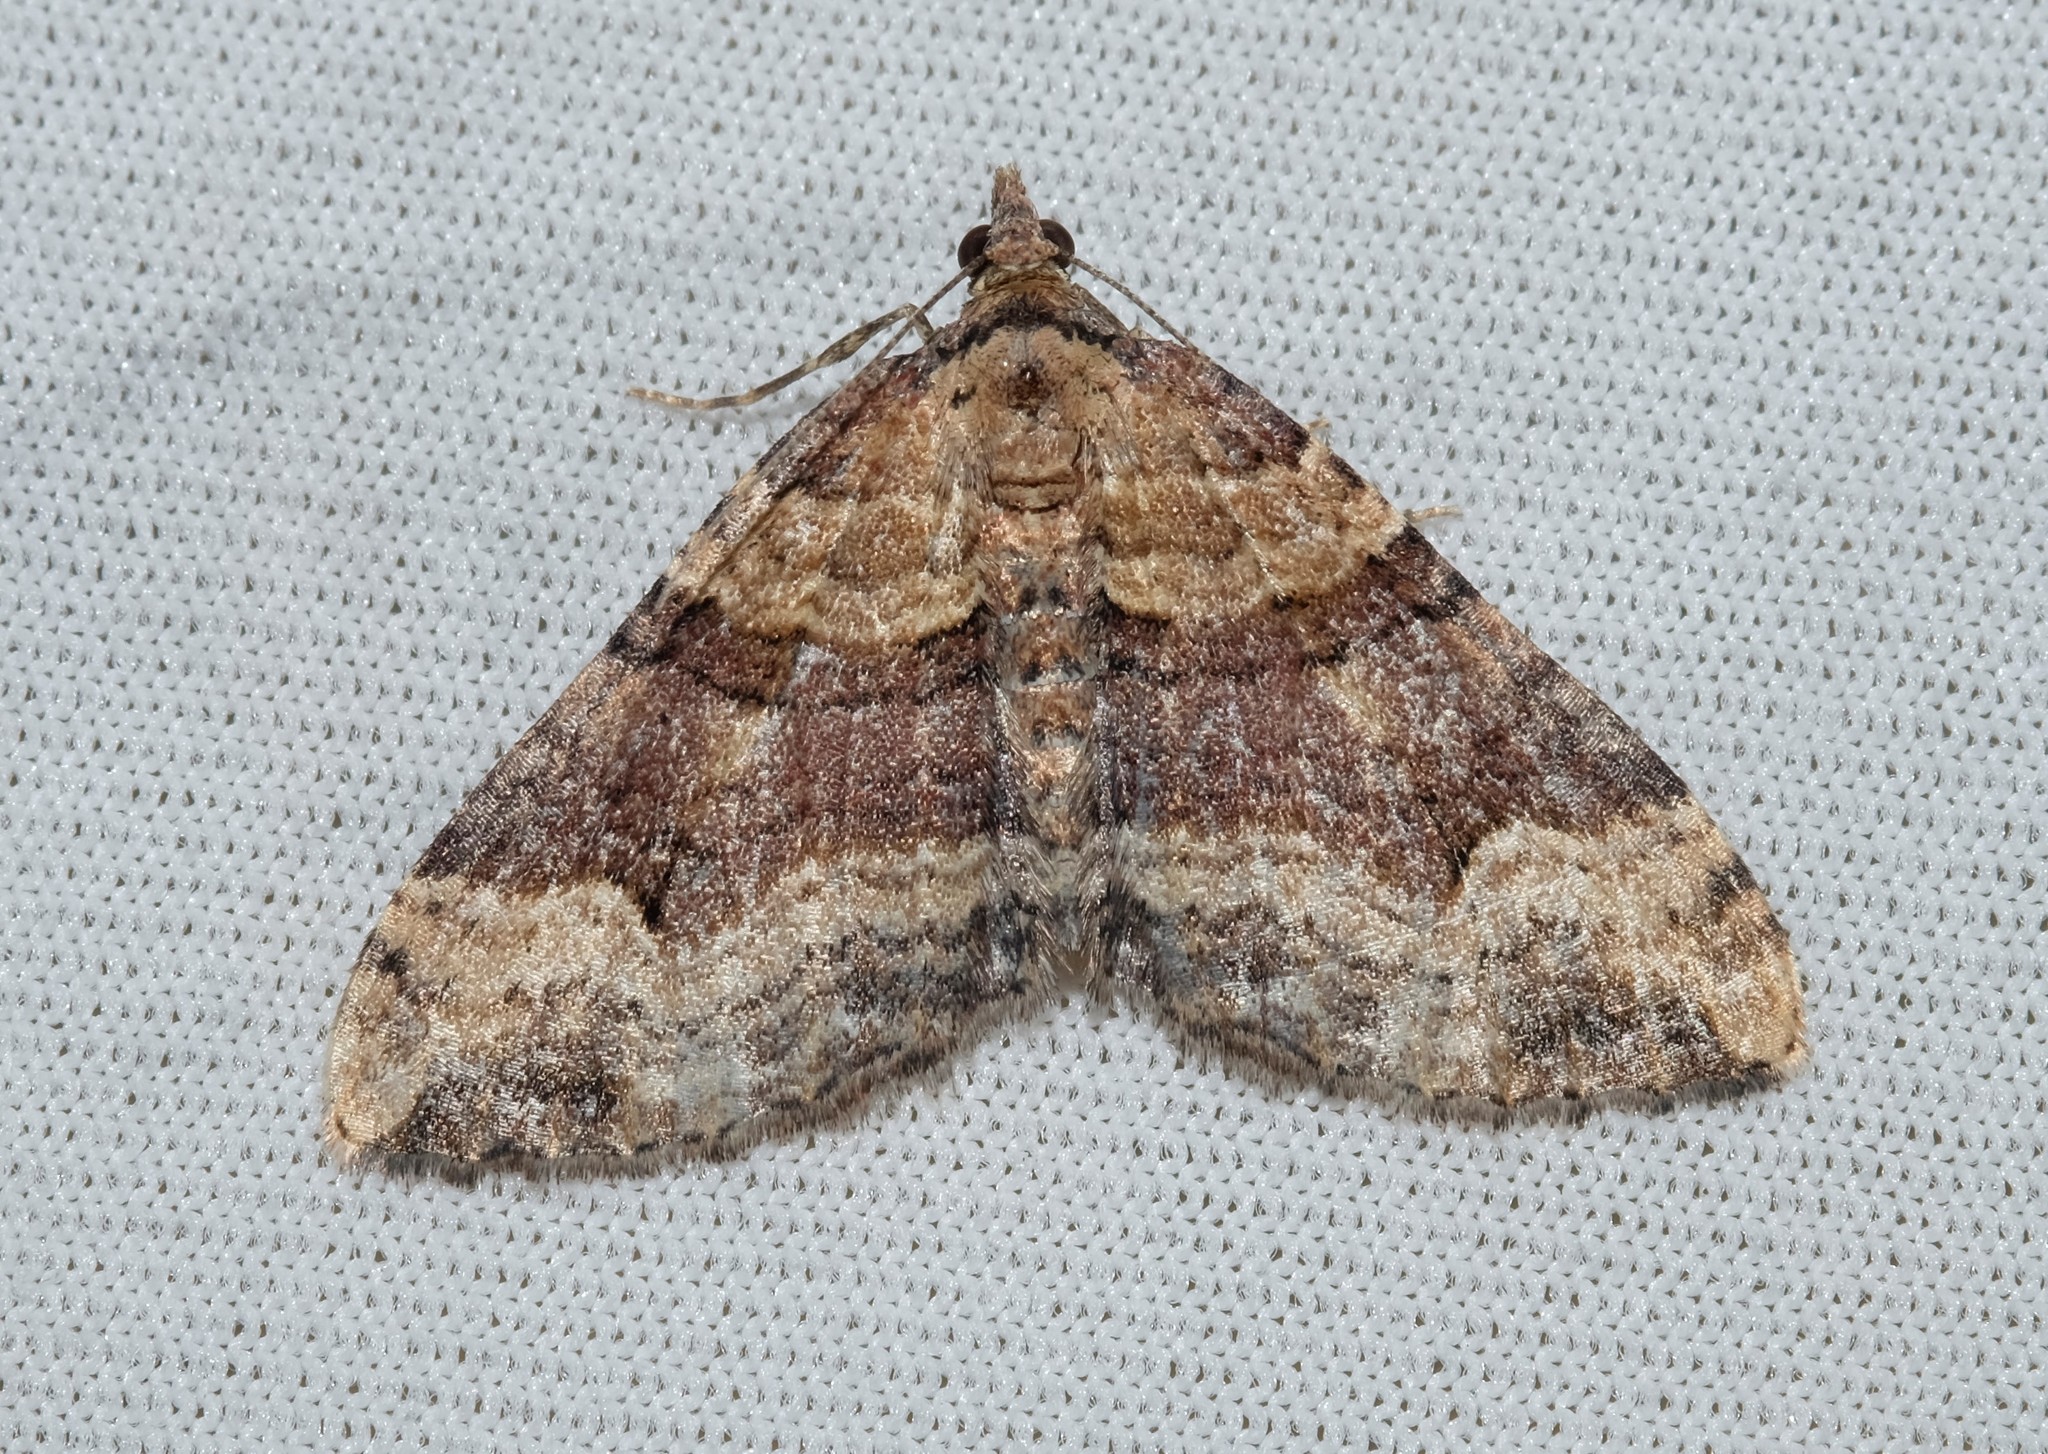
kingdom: Animalia
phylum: Arthropoda
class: Insecta
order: Lepidoptera
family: Geometridae
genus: Epyaxa
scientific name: Epyaxa subidaria
